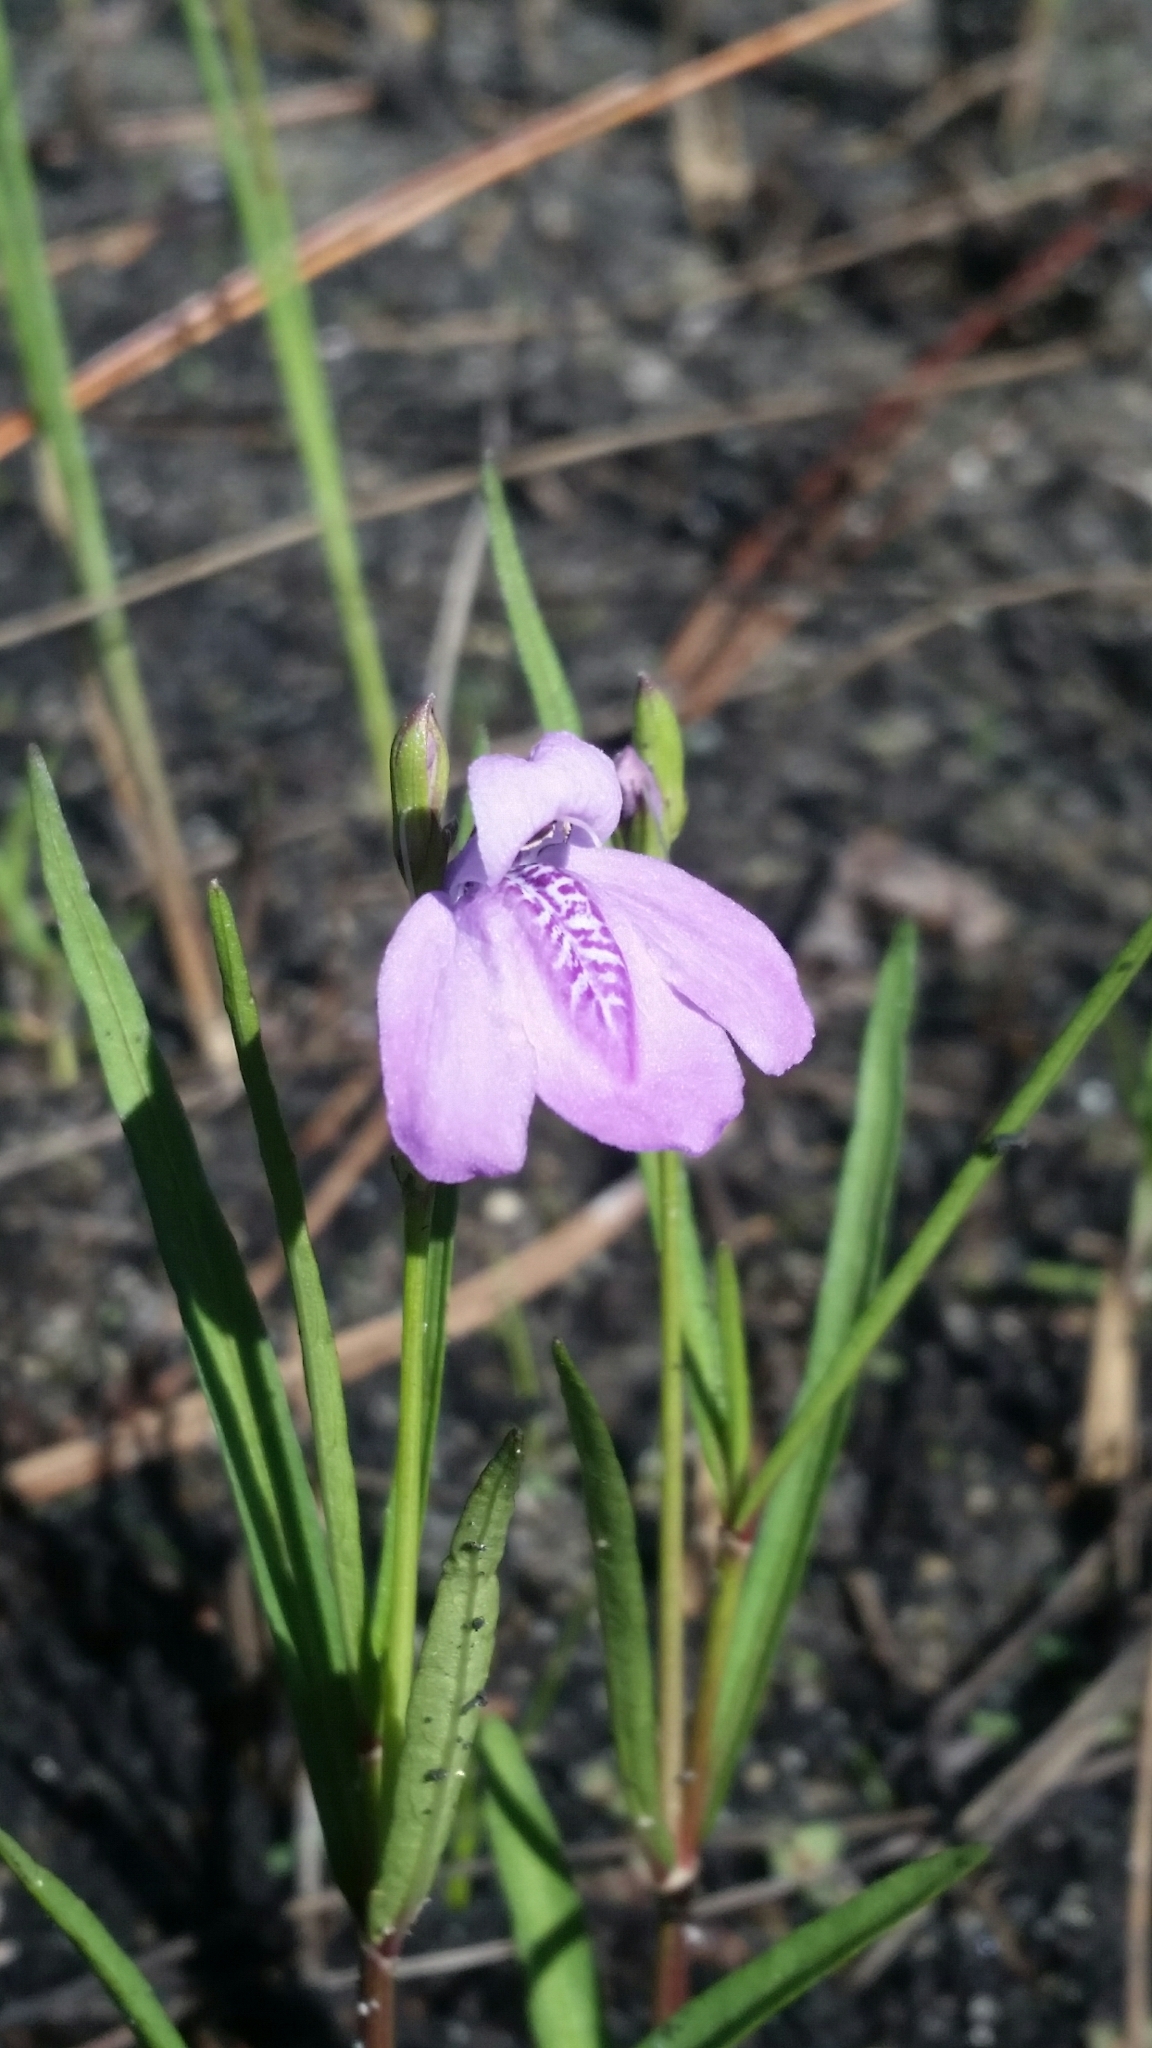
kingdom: Plantae
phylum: Tracheophyta
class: Magnoliopsida
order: Lamiales
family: Acanthaceae
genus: Dianthera
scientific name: Dianthera angusta
